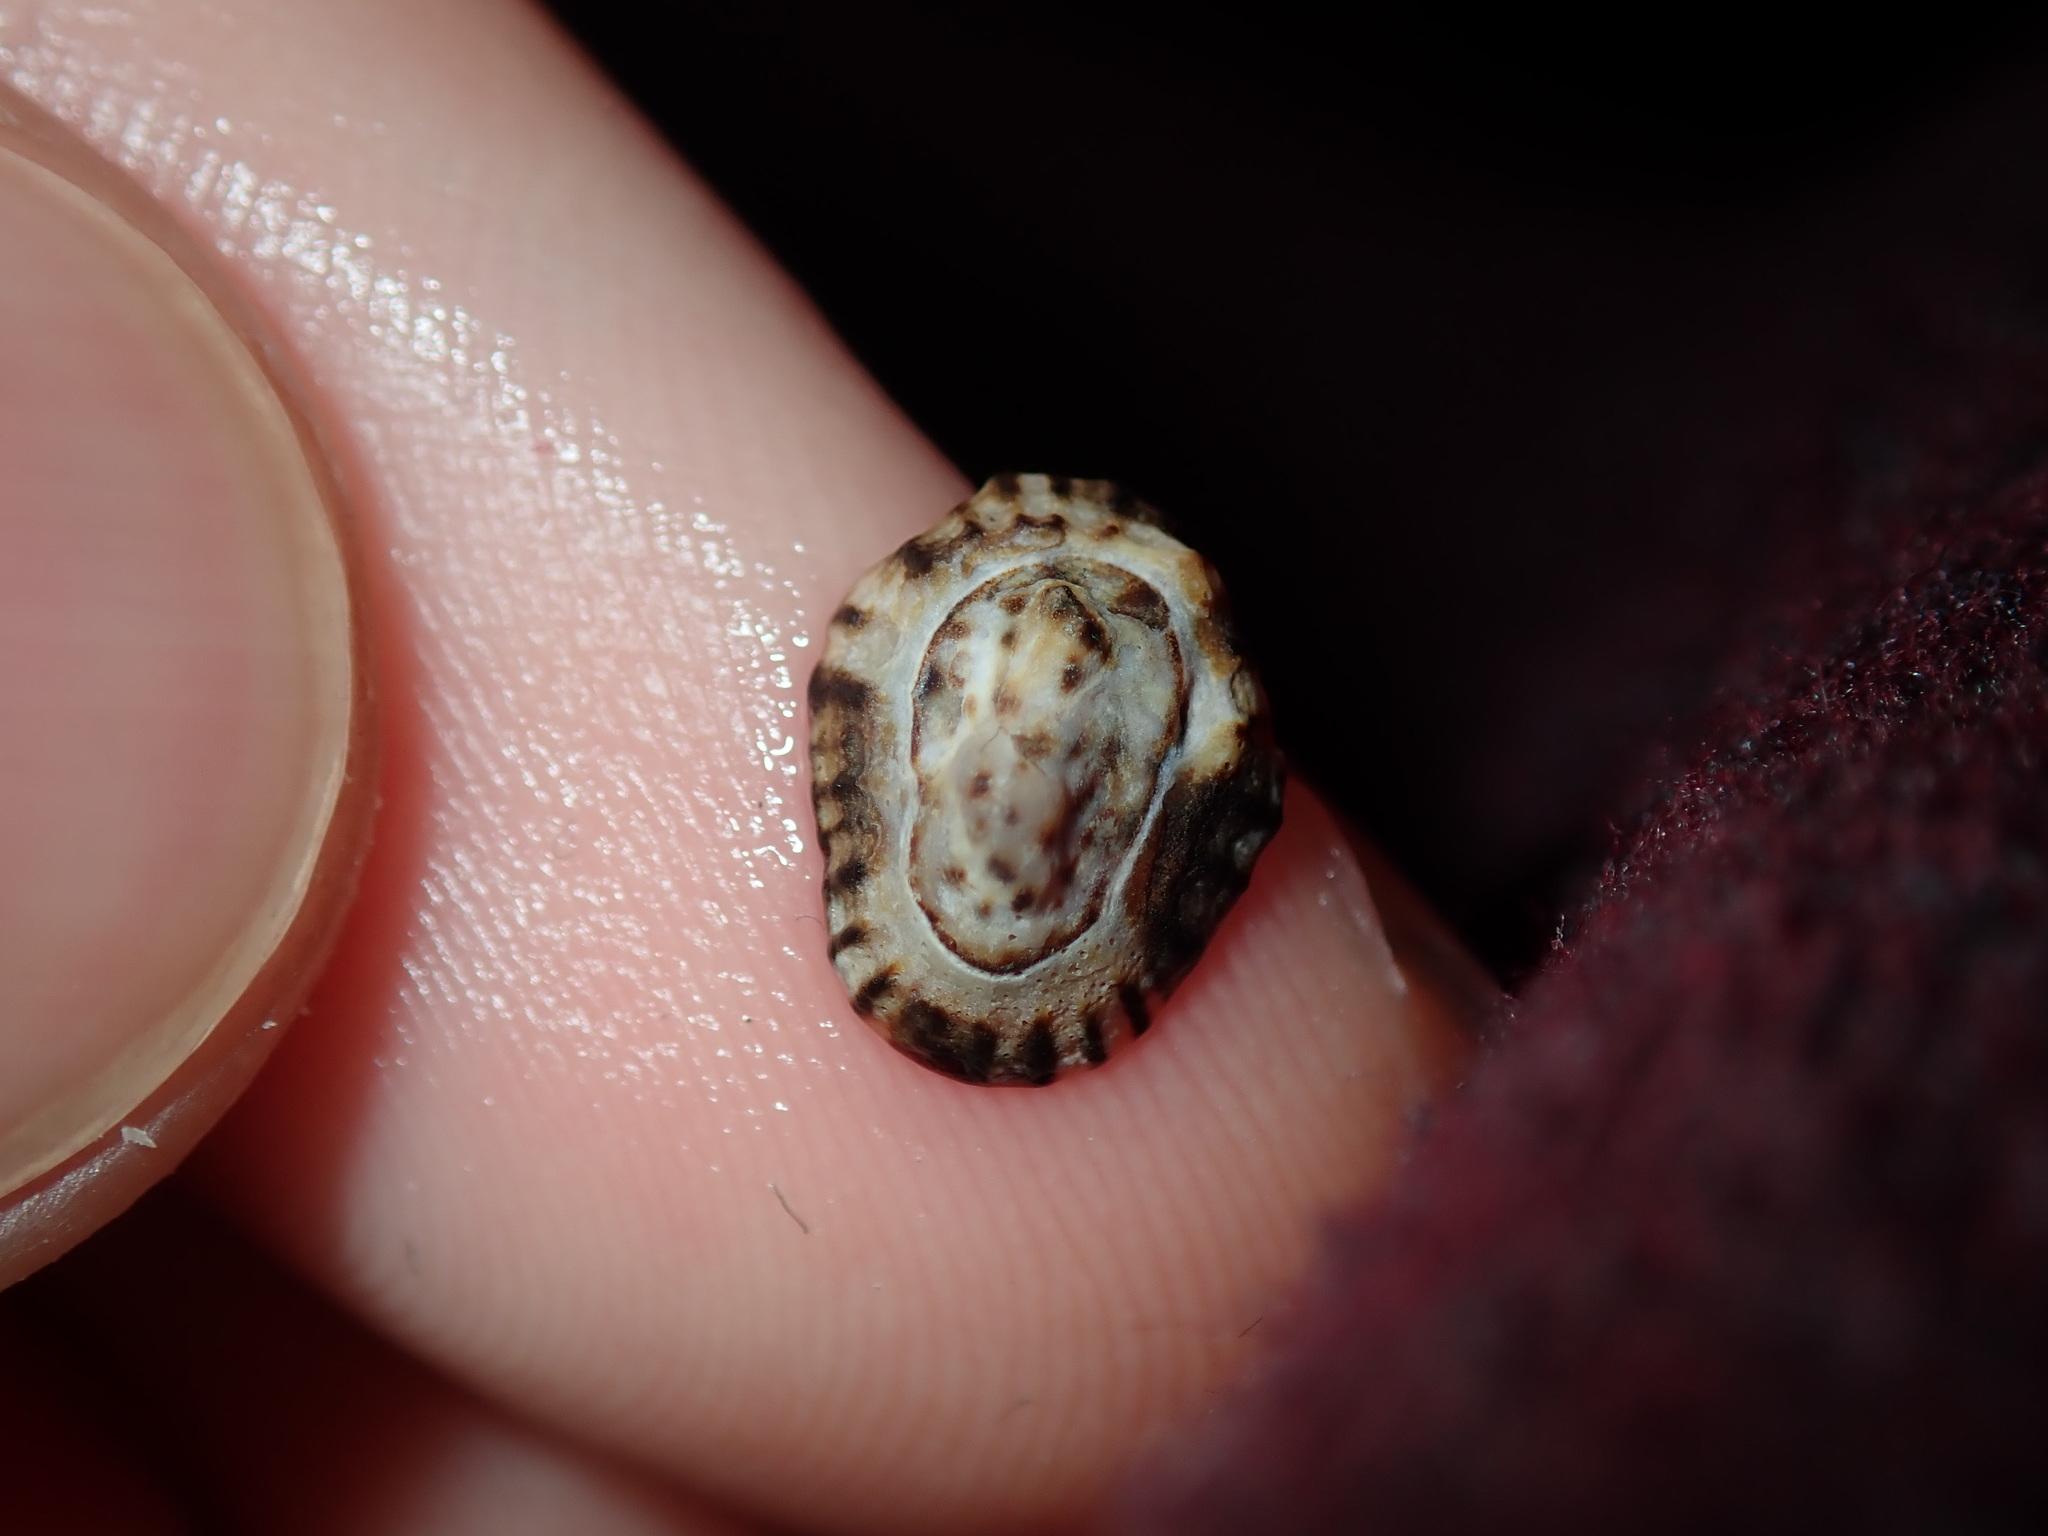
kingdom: Animalia
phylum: Mollusca
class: Gastropoda
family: Lottiidae
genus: Patelloida
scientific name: Patelloida latistrigata
